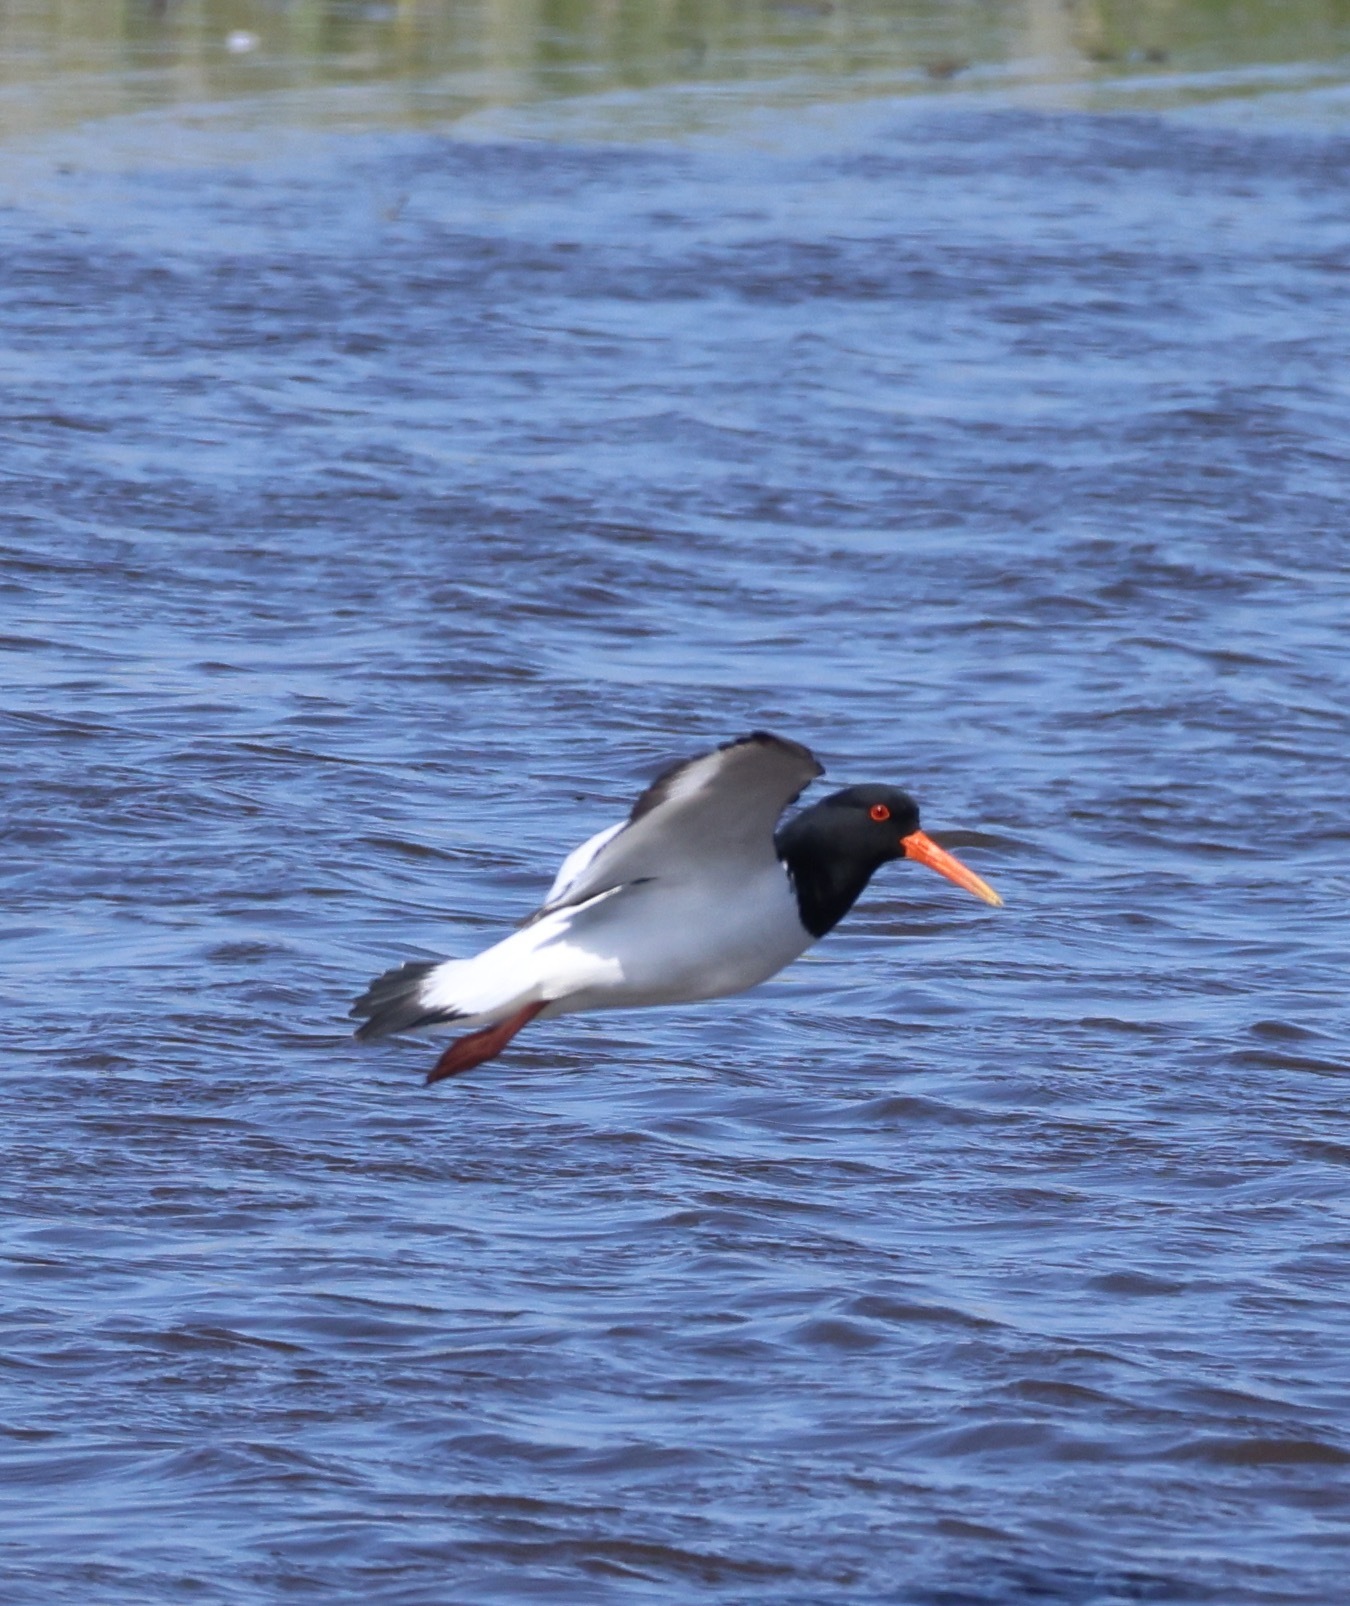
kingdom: Animalia
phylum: Chordata
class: Aves
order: Charadriiformes
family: Haematopodidae
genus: Haematopus
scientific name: Haematopus ostralegus
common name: Eurasian oystercatcher
